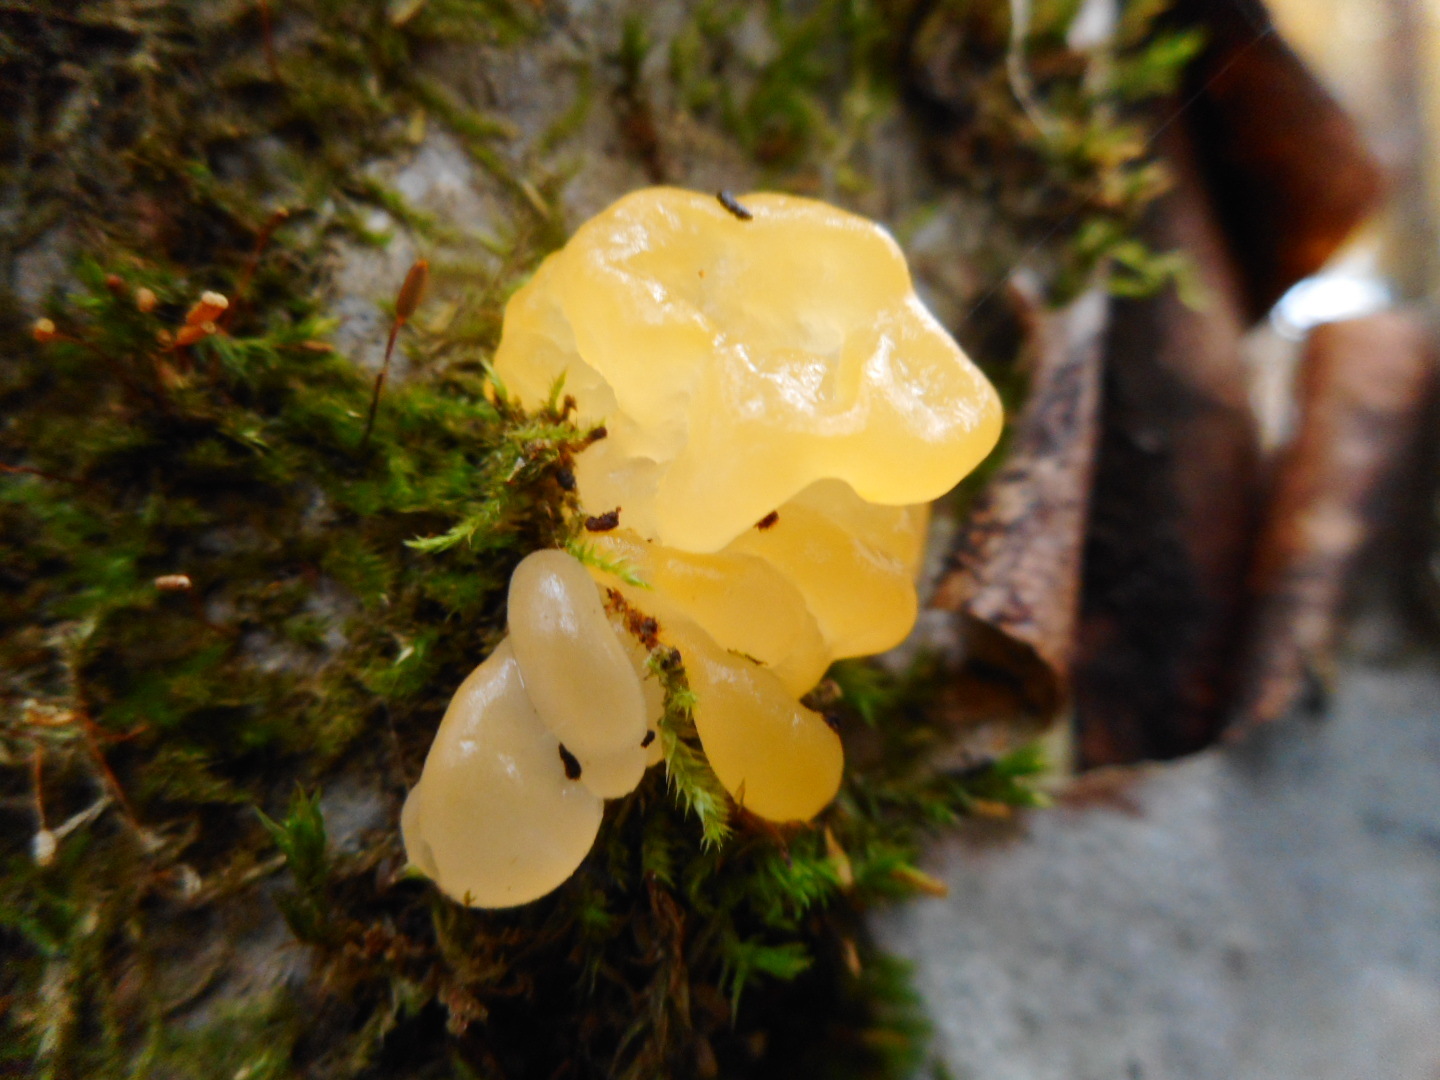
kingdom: Fungi
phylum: Basidiomycota
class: Tremellomycetes
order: Tremellales
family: Tremellaceae
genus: Tremella
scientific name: Tremella mesenterica
